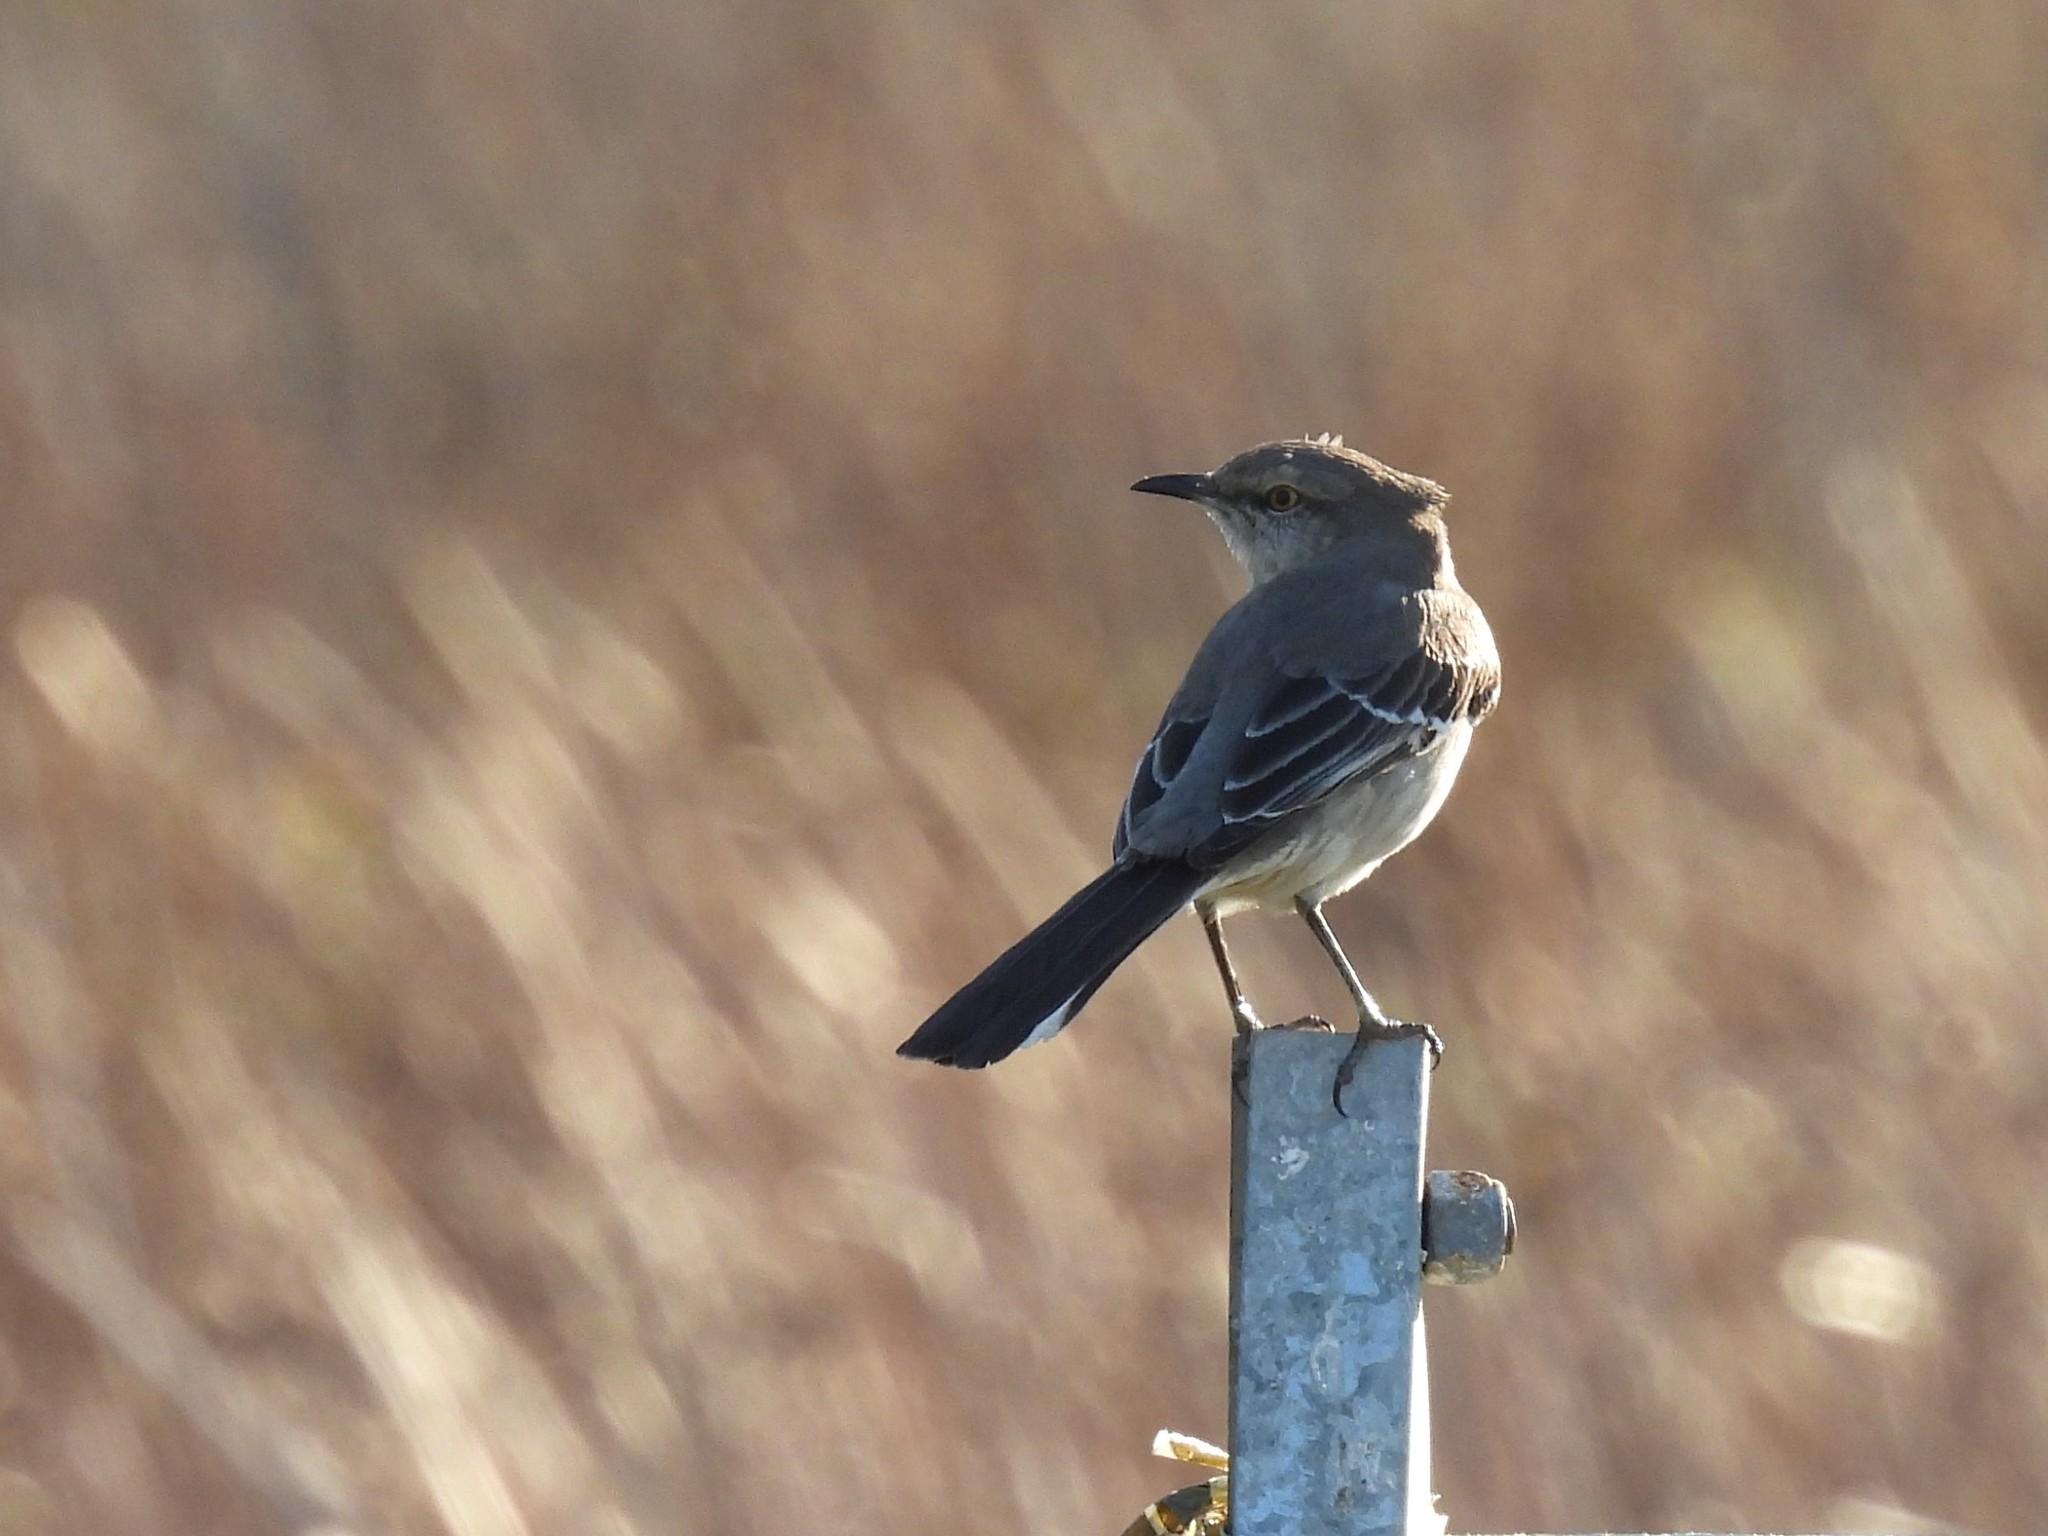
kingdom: Animalia
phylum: Chordata
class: Aves
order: Passeriformes
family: Mimidae
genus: Mimus
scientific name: Mimus polyglottos
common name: Northern mockingbird
